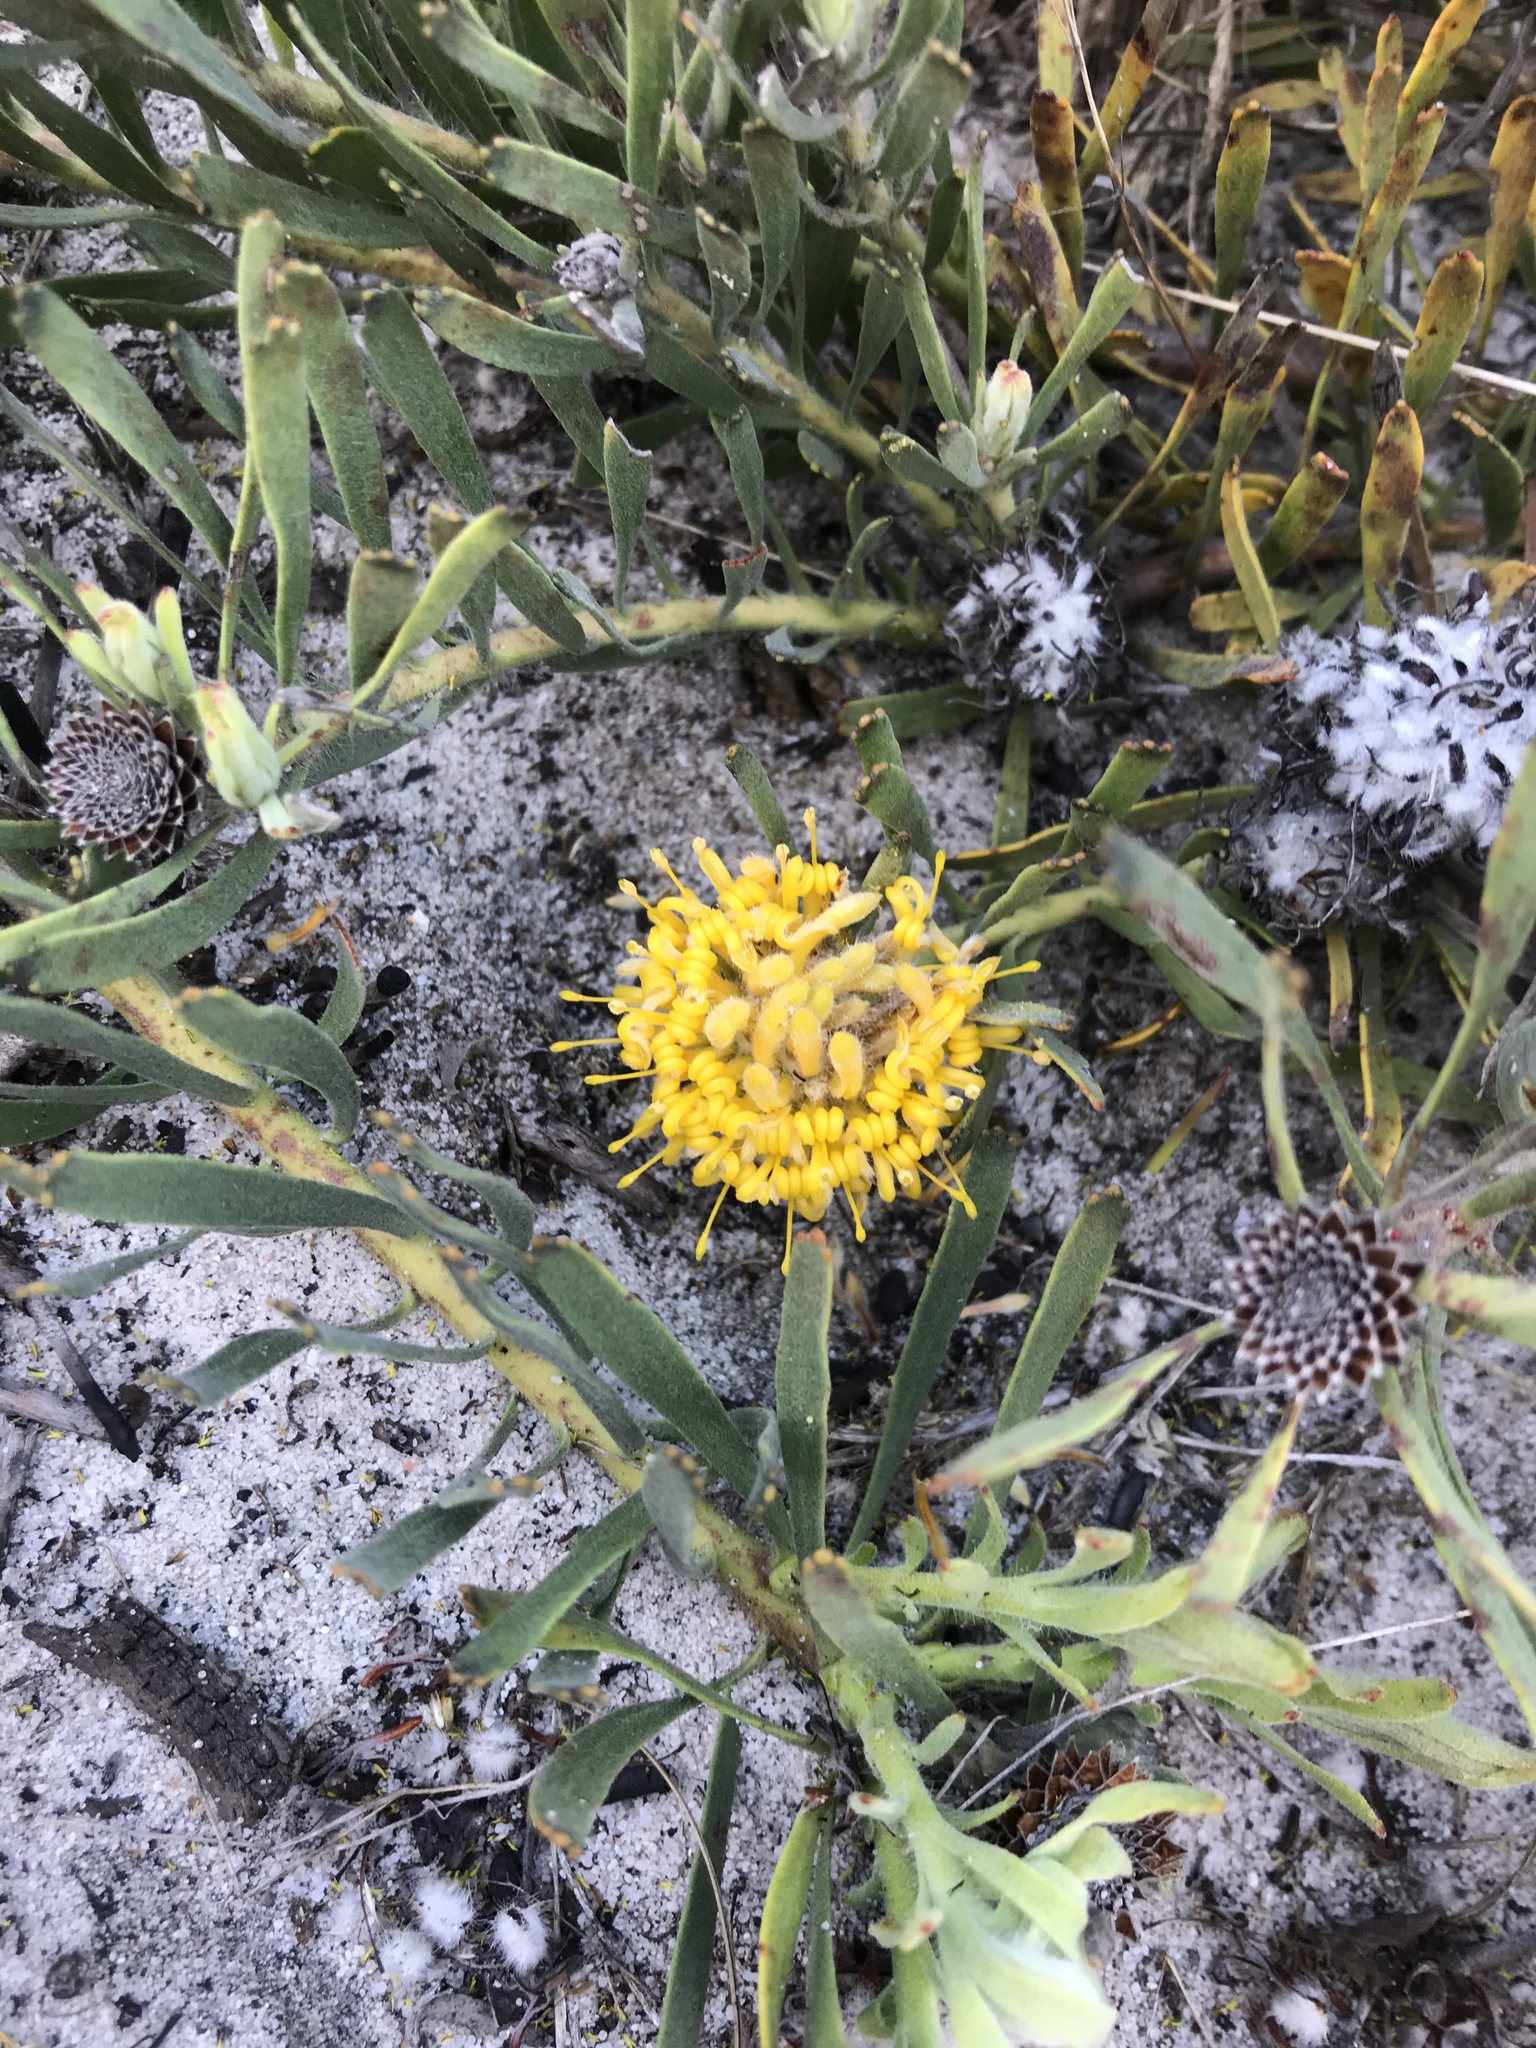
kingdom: Plantae
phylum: Tracheophyta
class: Magnoliopsida
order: Proteales
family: Proteaceae
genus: Leucospermum
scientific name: Leucospermum hypophyllocarpodendron
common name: Snakestem pincushion
